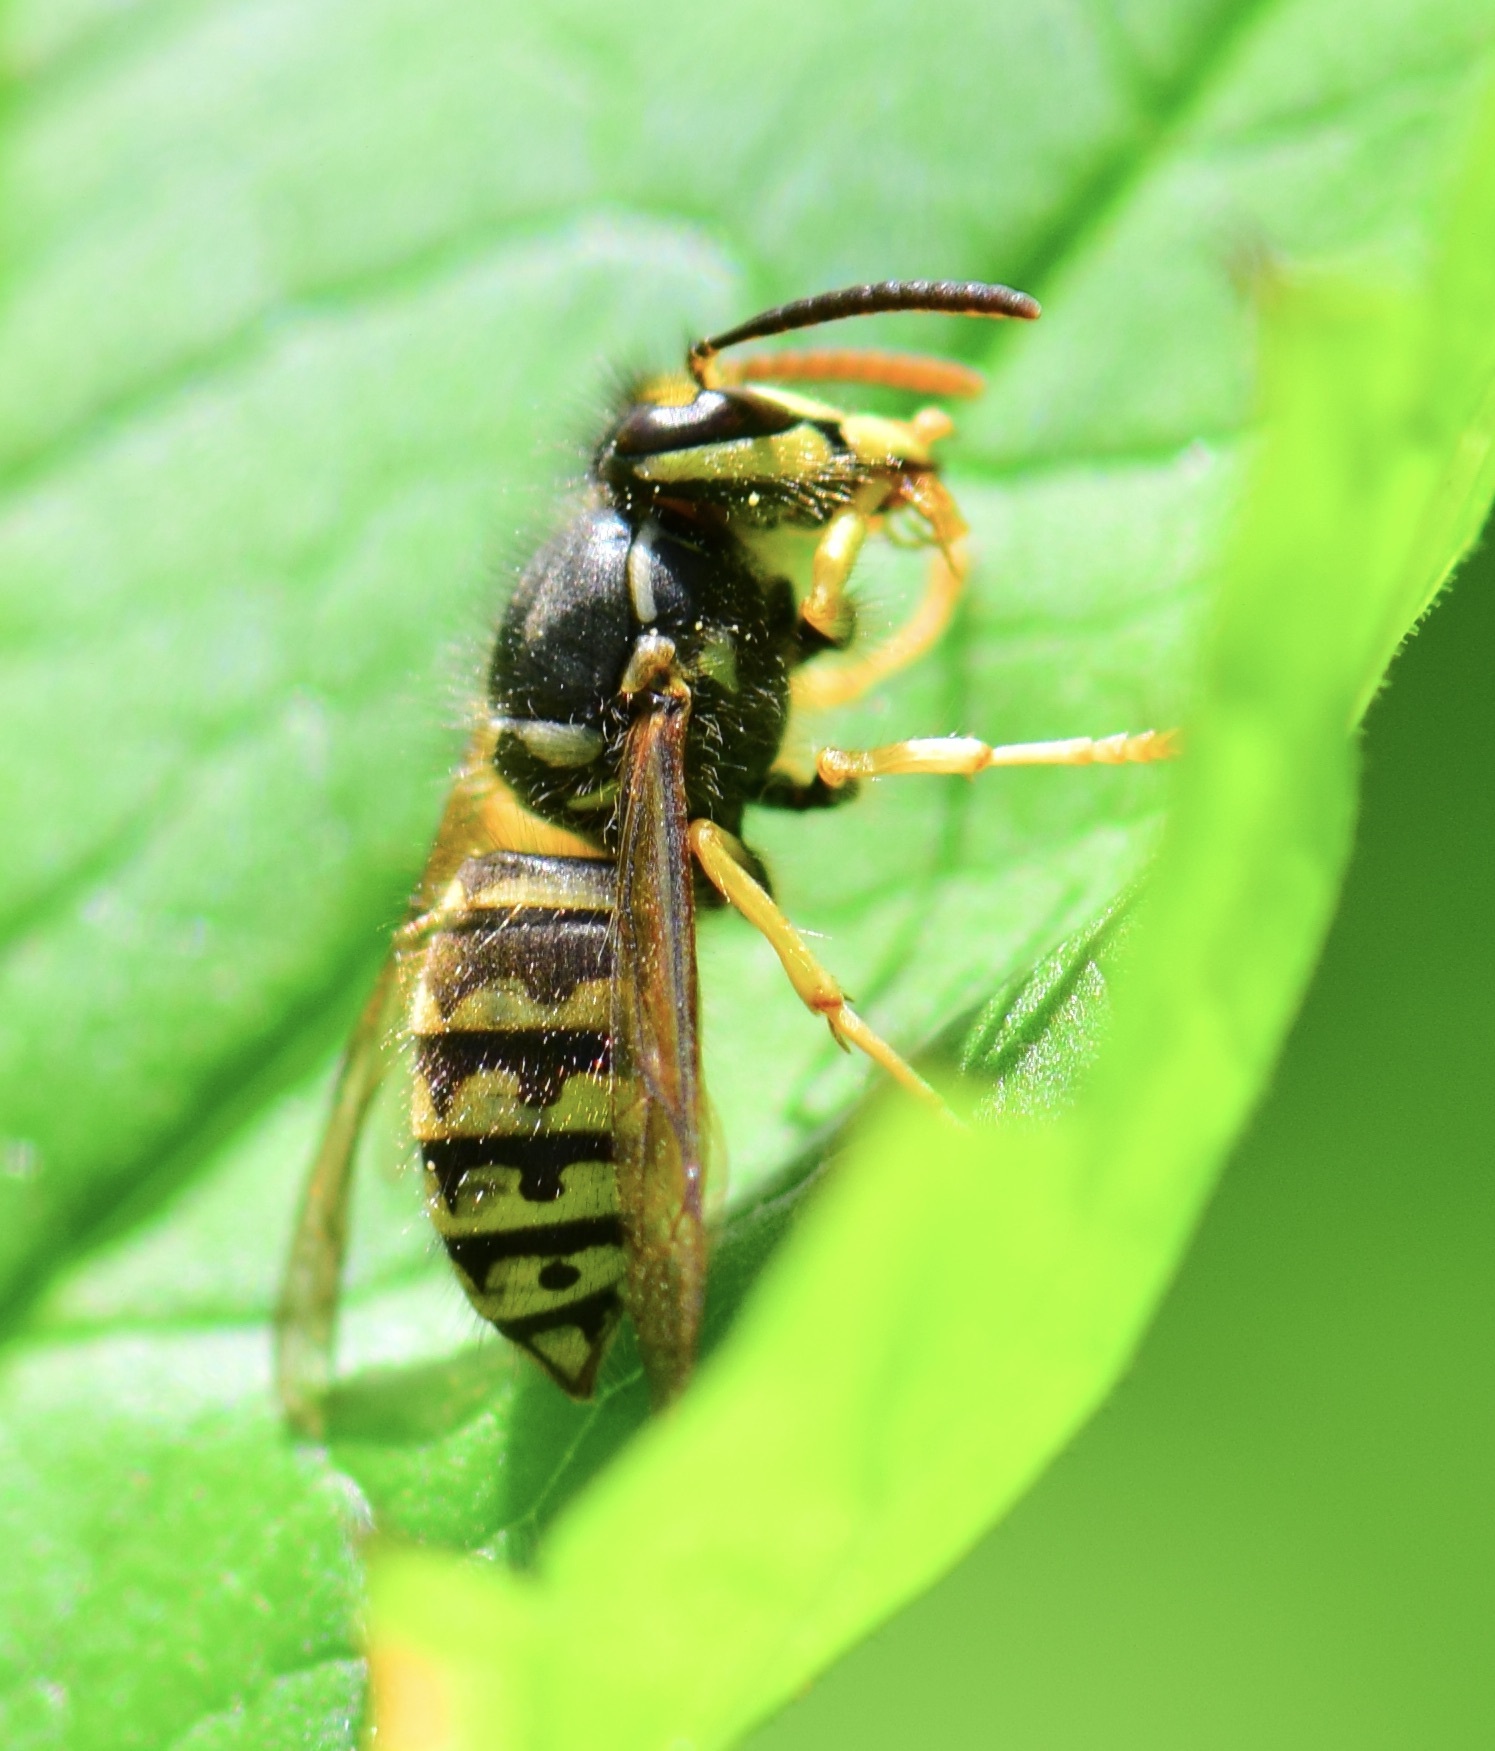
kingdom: Animalia
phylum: Arthropoda
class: Insecta
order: Hymenoptera
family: Vespidae
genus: Dolichovespula
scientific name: Dolichovespula arenaria
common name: Aerial yellowjacket
